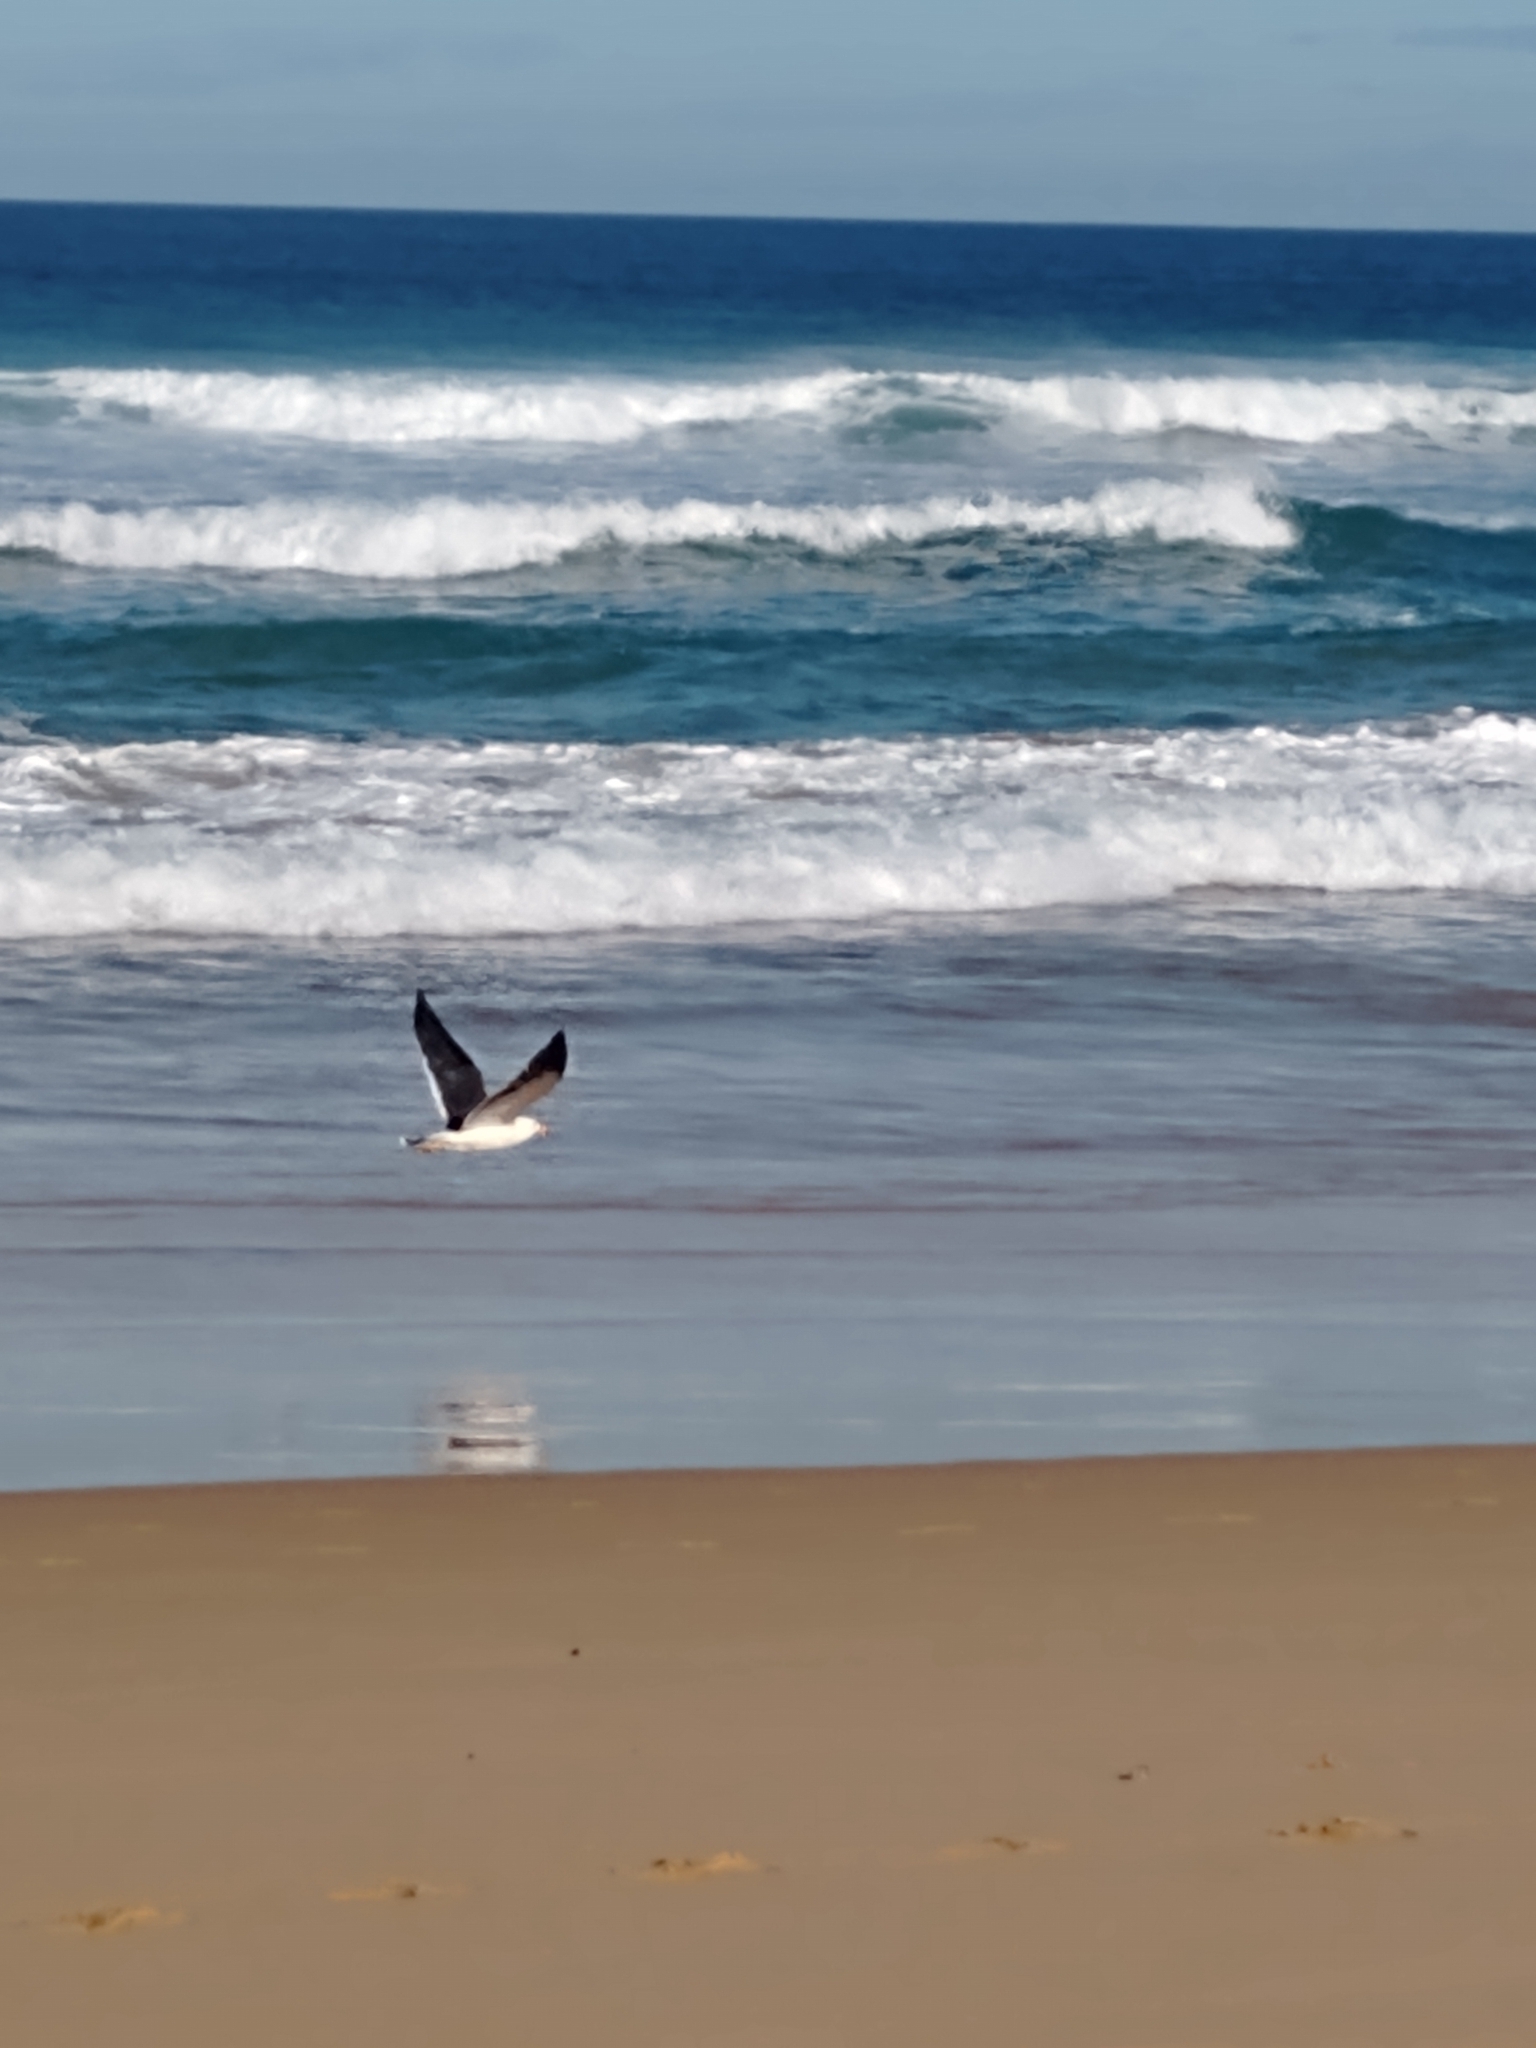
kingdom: Animalia
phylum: Chordata
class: Aves
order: Charadriiformes
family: Laridae
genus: Larus
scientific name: Larus pacificus
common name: Pacific gull
